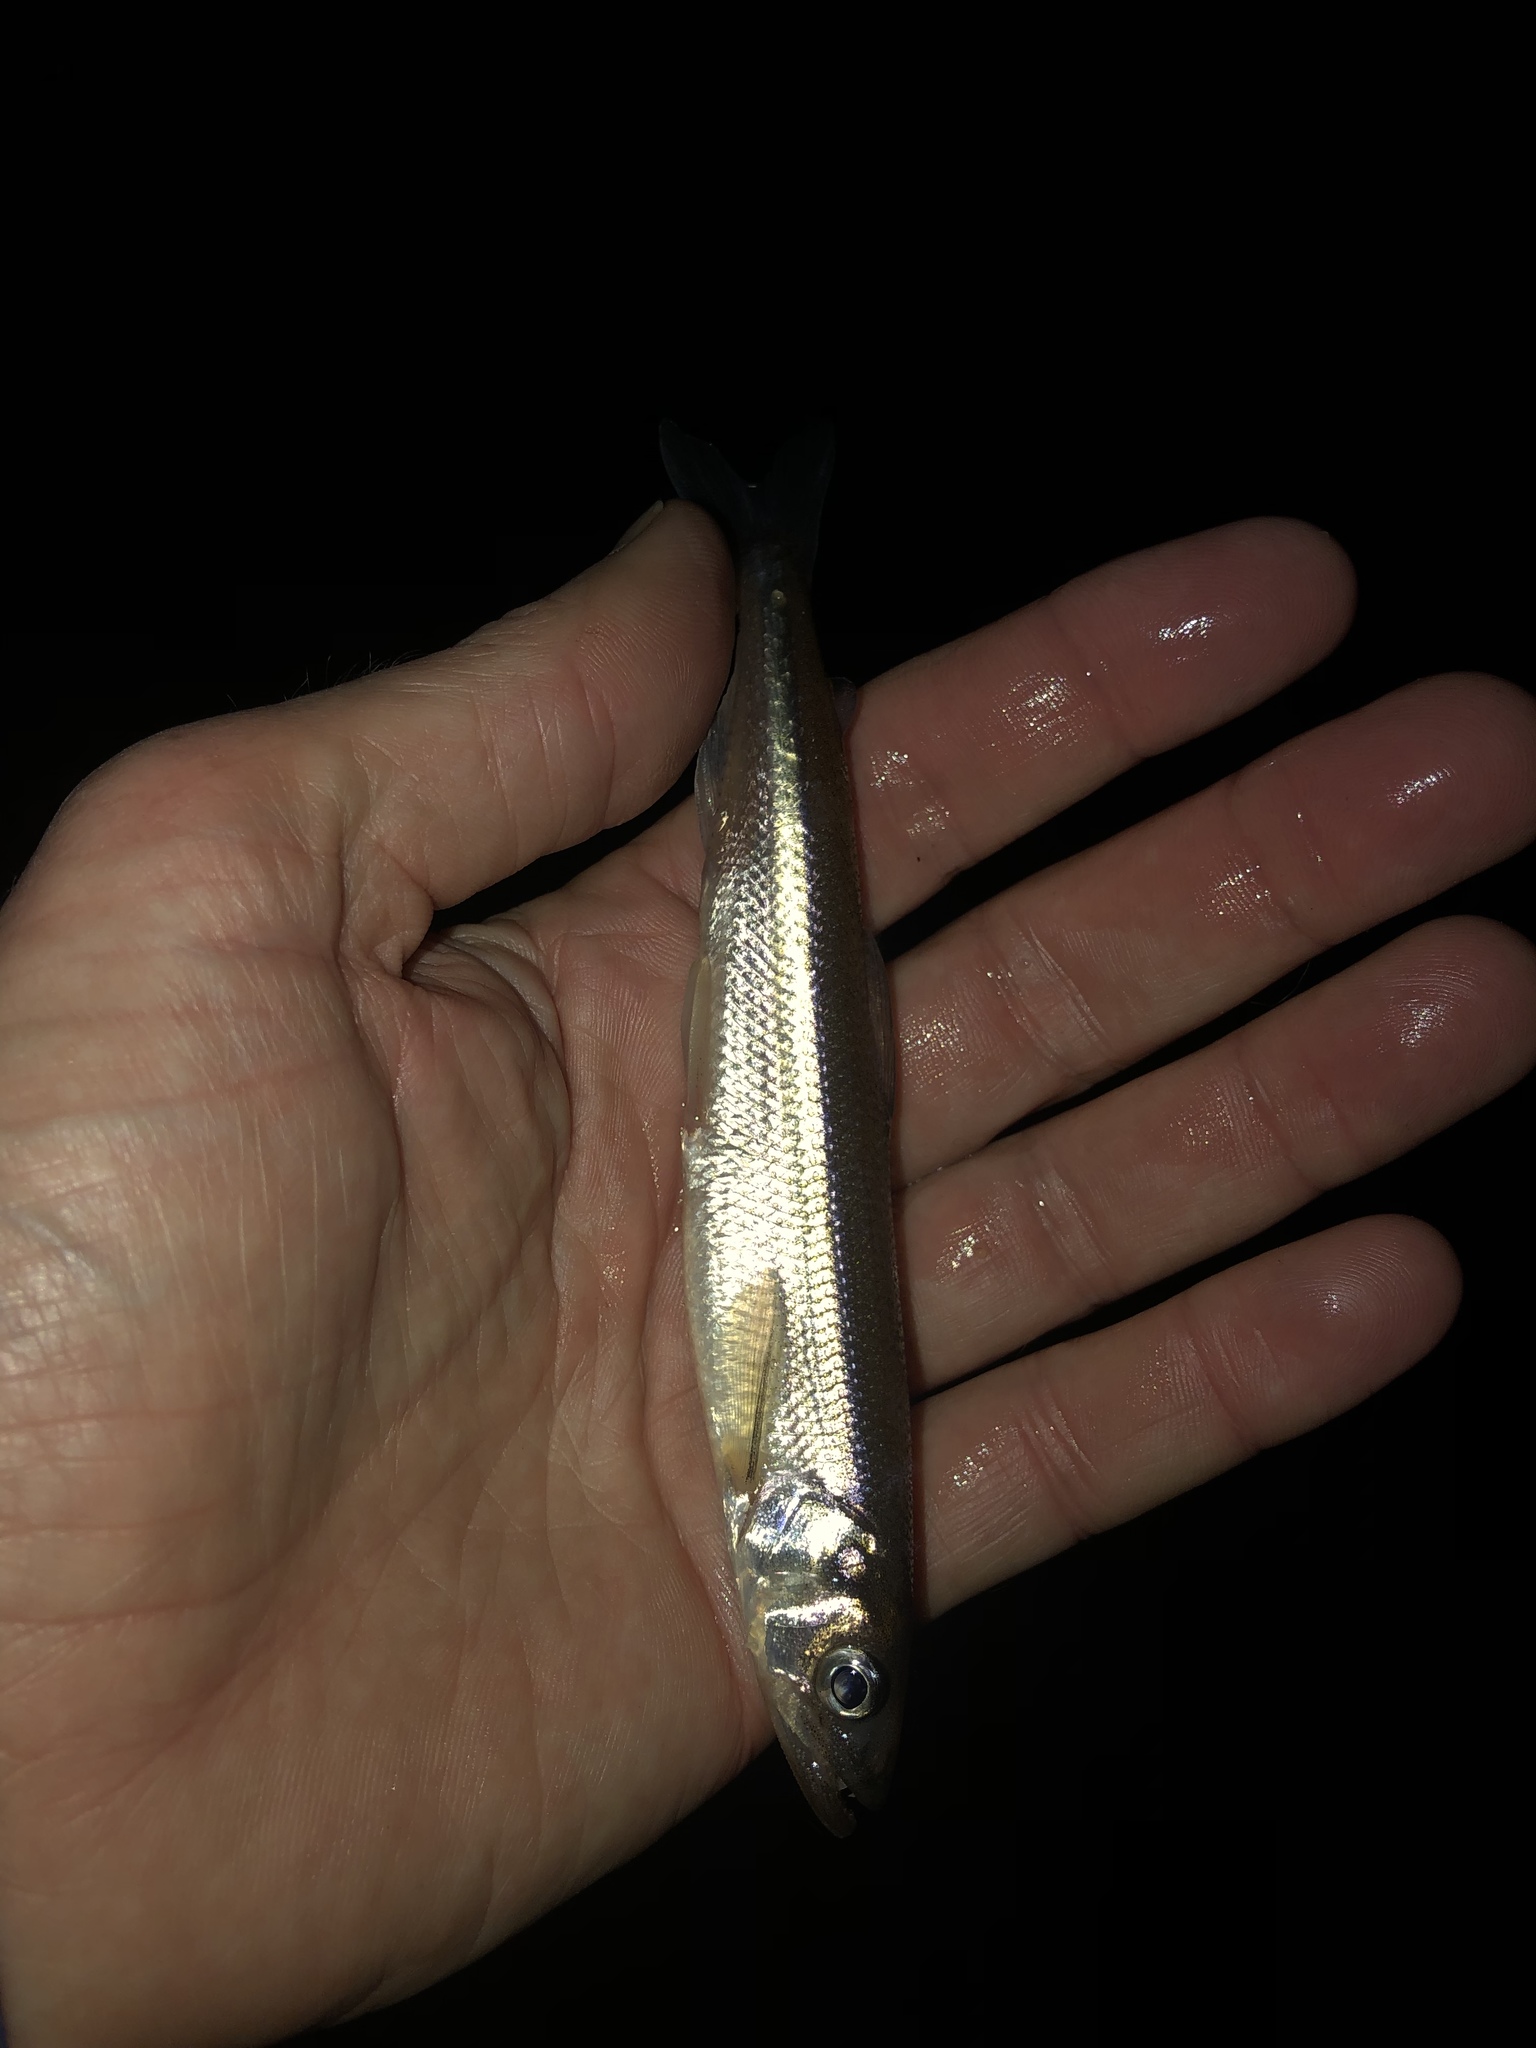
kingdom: Animalia
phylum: Chordata
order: Osmeriformes
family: Osmeridae
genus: Osmerus
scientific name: Osmerus mordax
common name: Rainbow smelt
